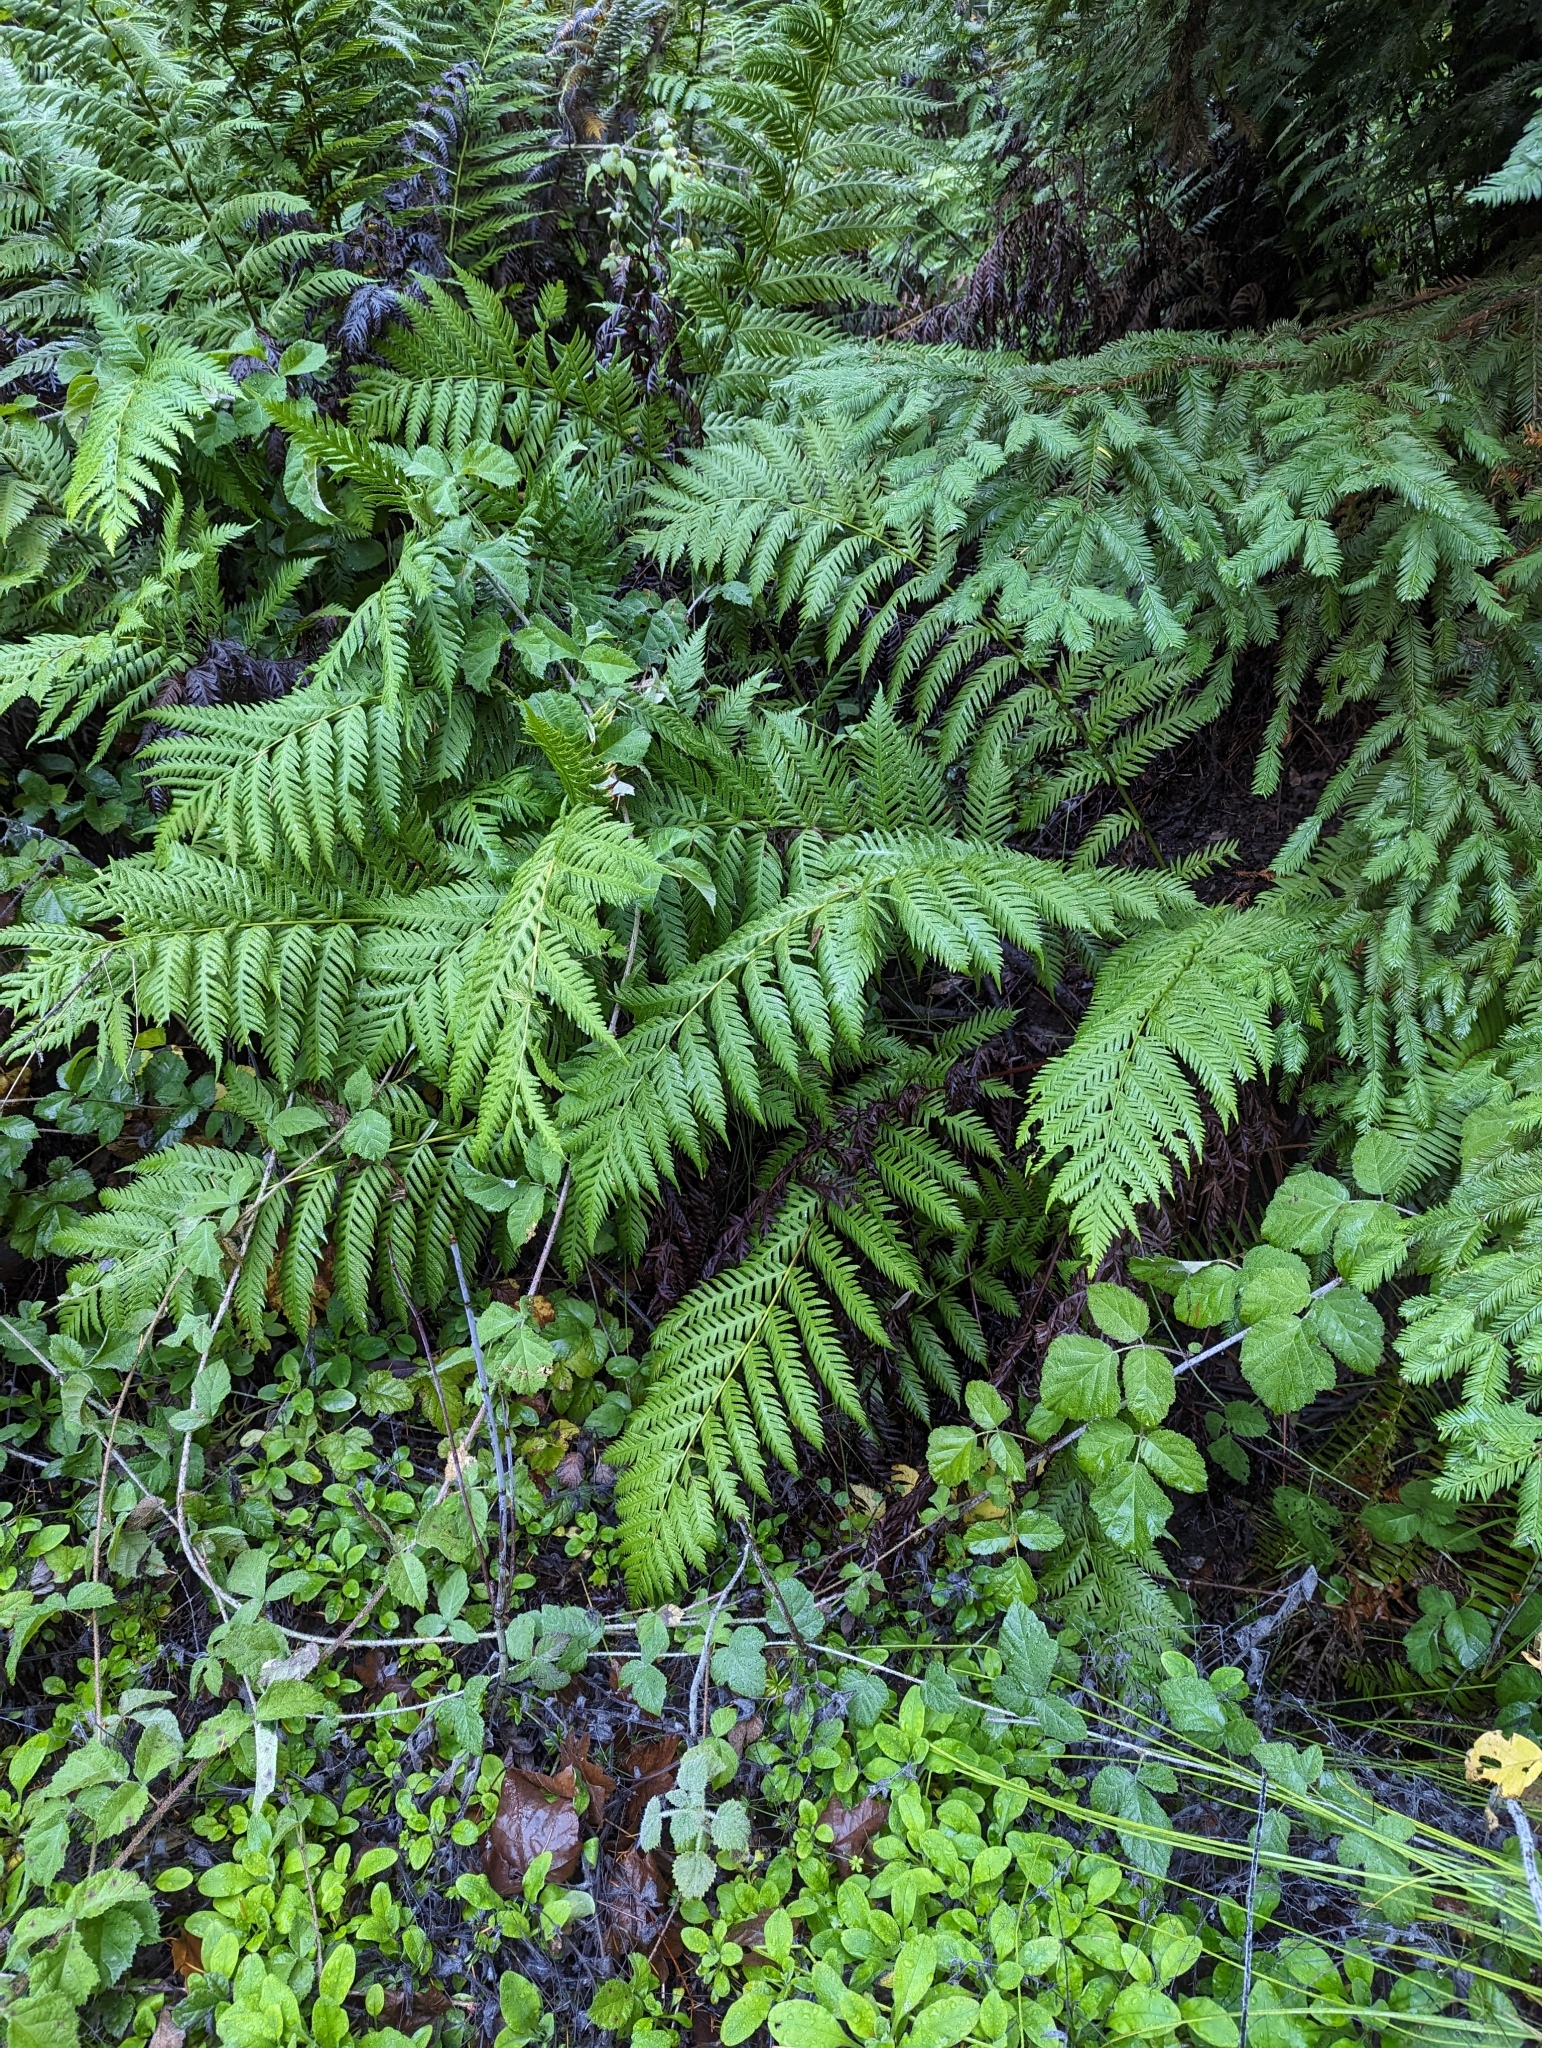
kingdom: Plantae
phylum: Tracheophyta
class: Polypodiopsida
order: Polypodiales
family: Blechnaceae
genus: Woodwardia
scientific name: Woodwardia fimbriata
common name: Giant chain fern
